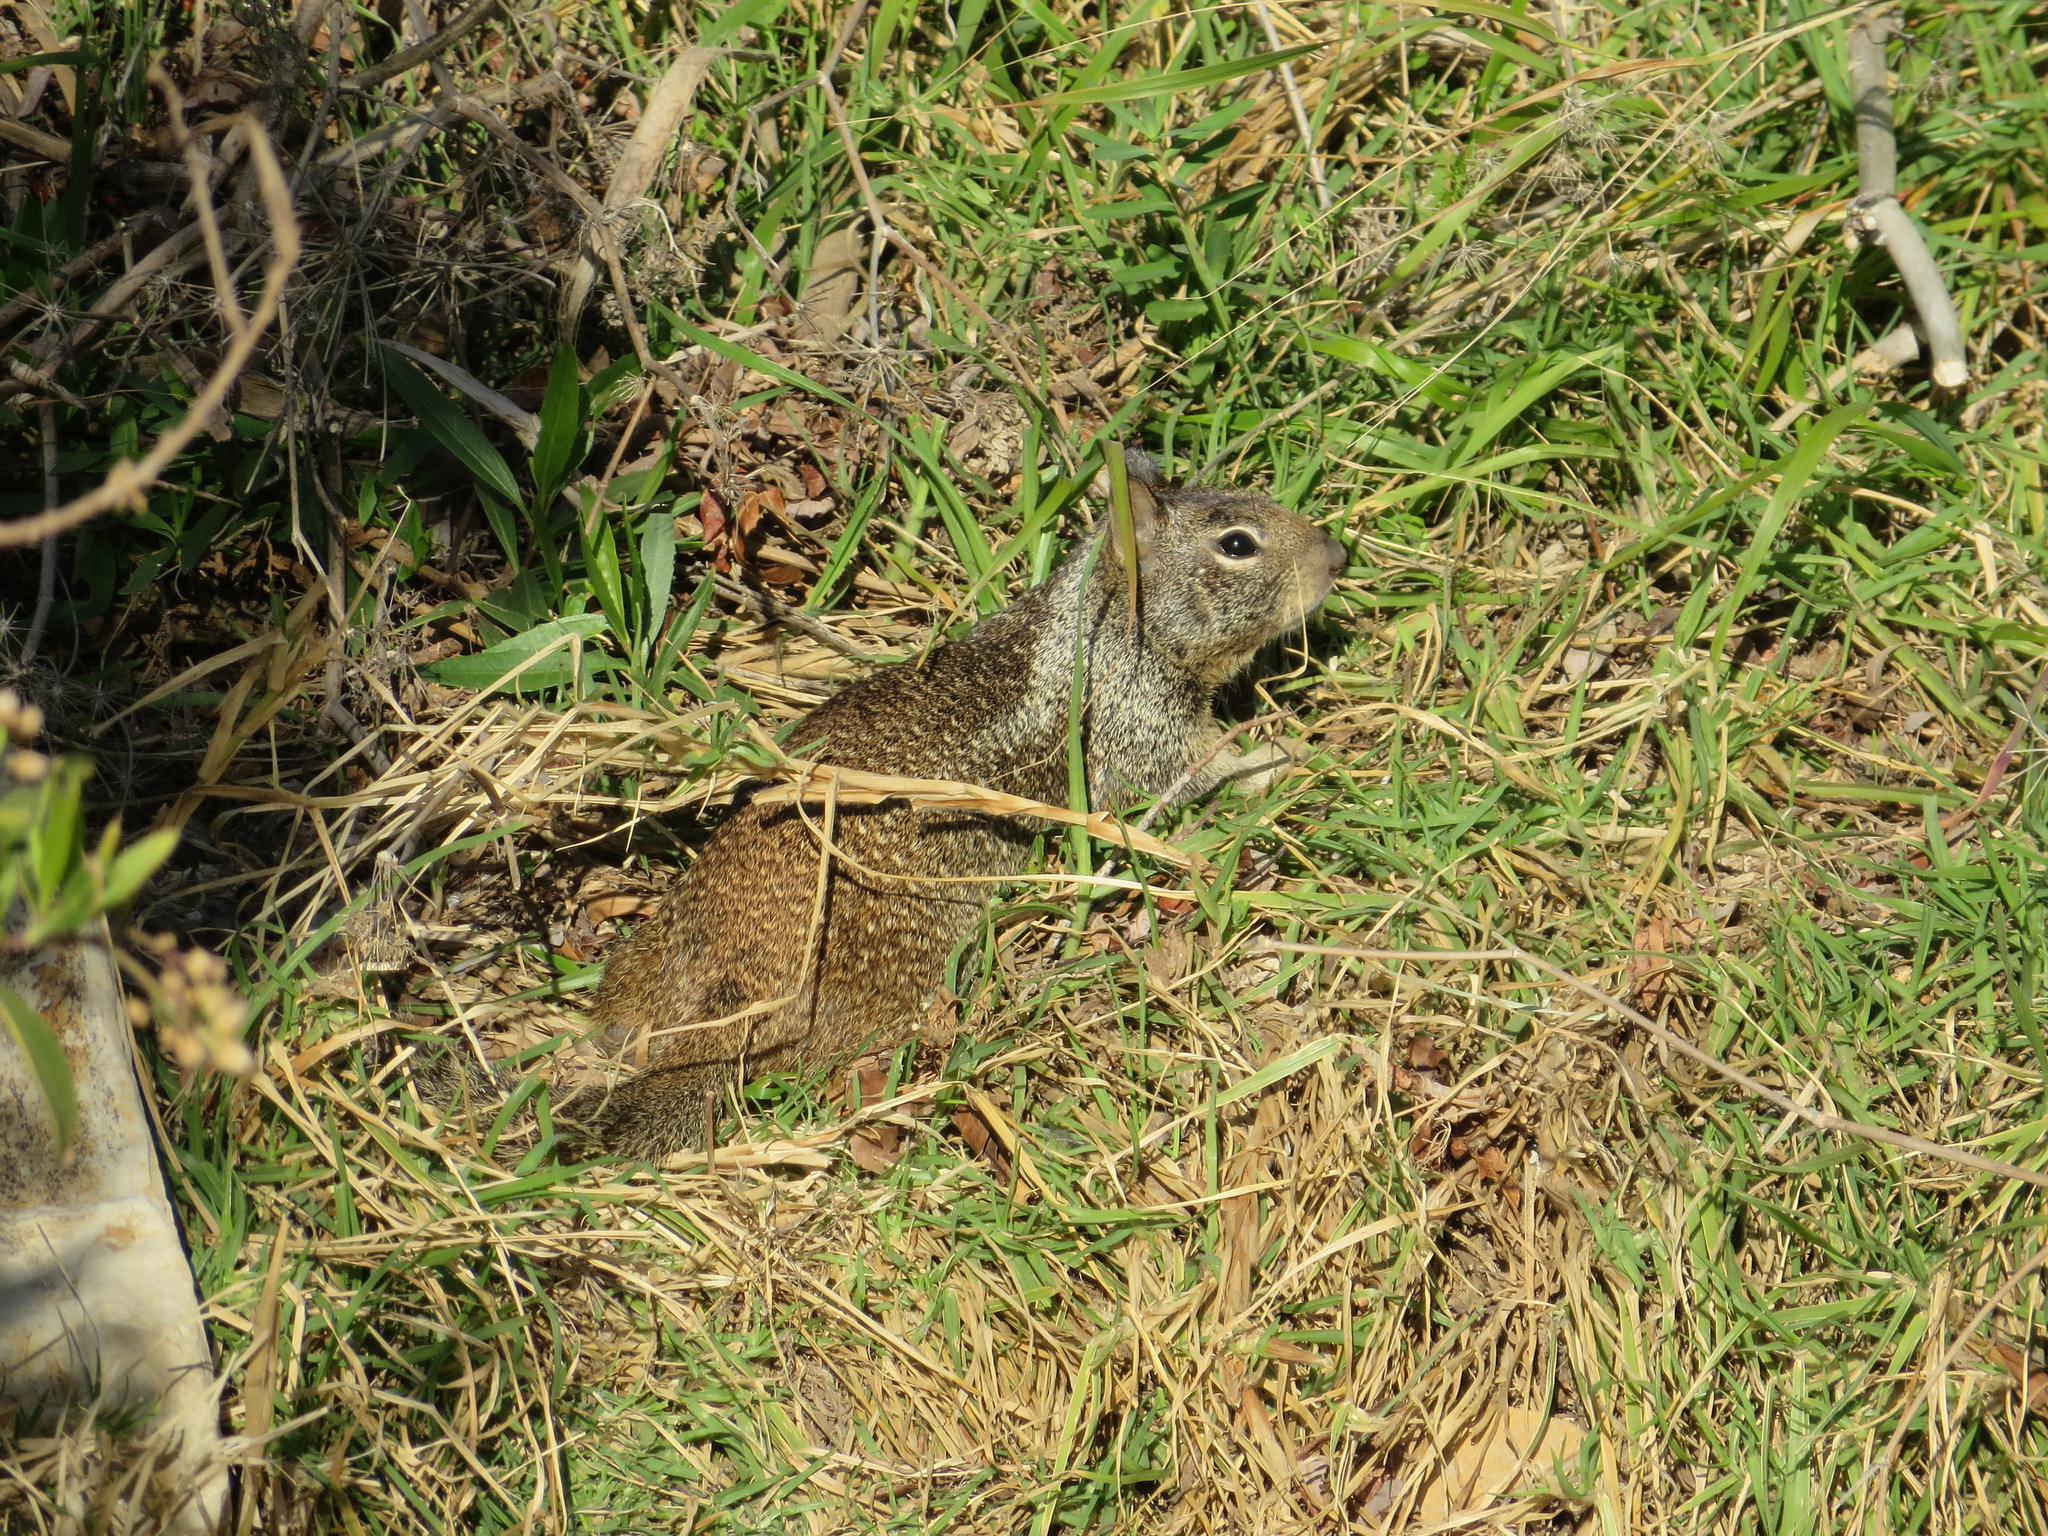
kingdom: Animalia
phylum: Chordata
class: Mammalia
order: Rodentia
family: Sciuridae
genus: Otospermophilus
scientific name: Otospermophilus beecheyi
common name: California ground squirrel
